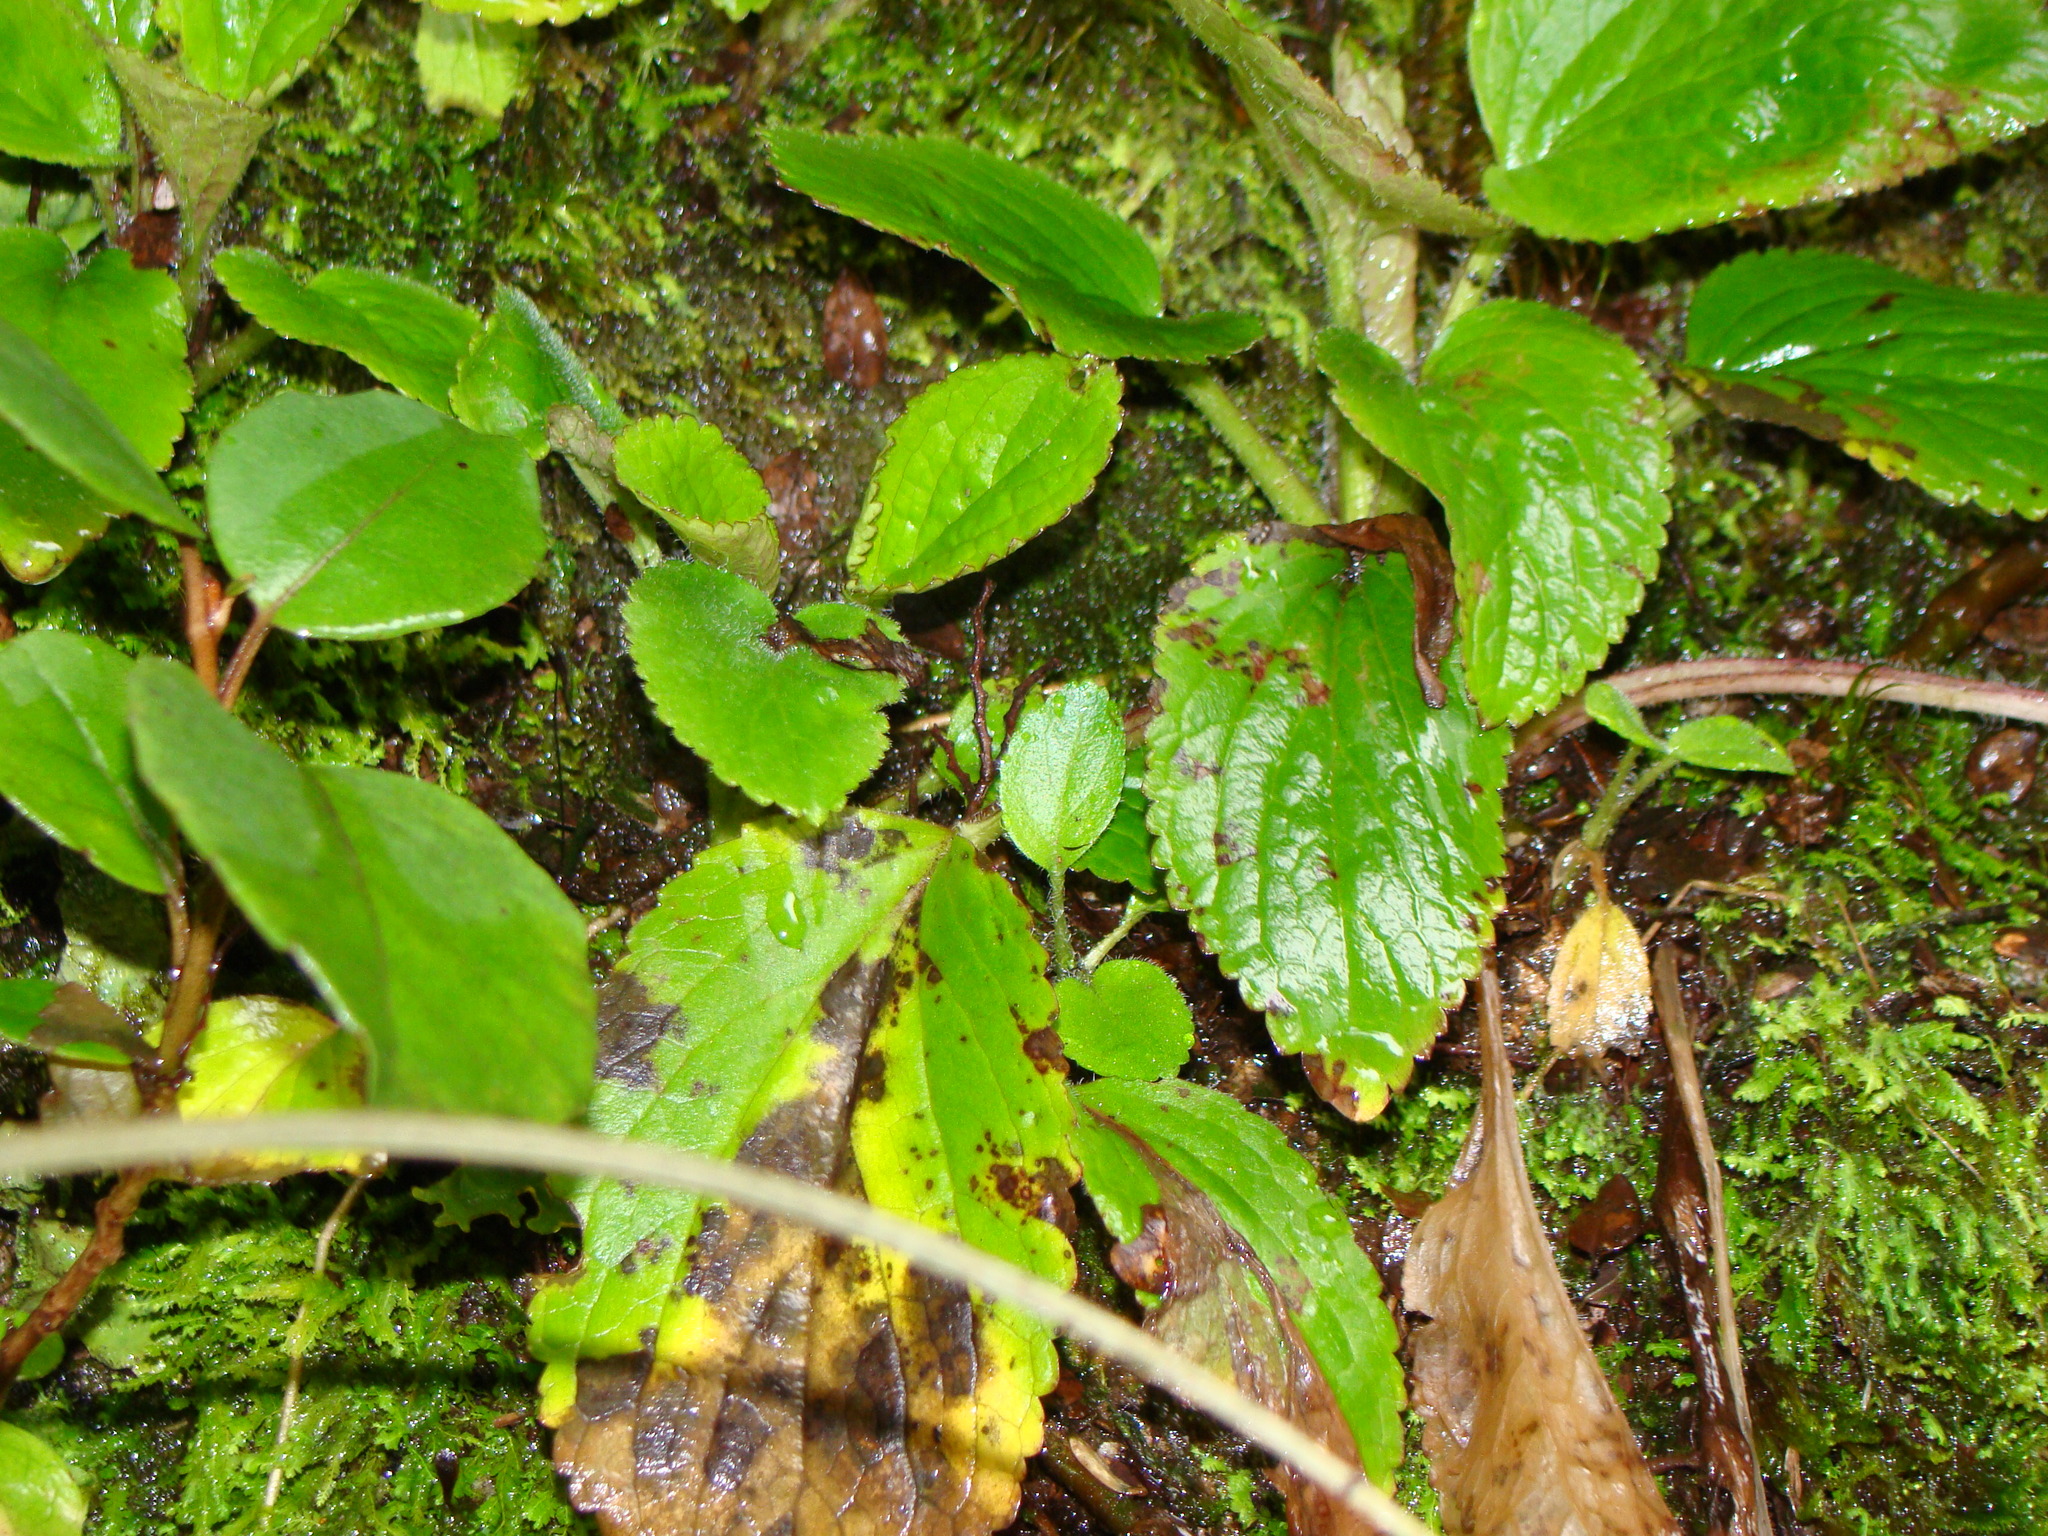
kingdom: Plantae
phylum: Tracheophyta
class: Magnoliopsida
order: Lamiales
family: Plantaginaceae
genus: Ourisia
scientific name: Ourisia macrophylla
